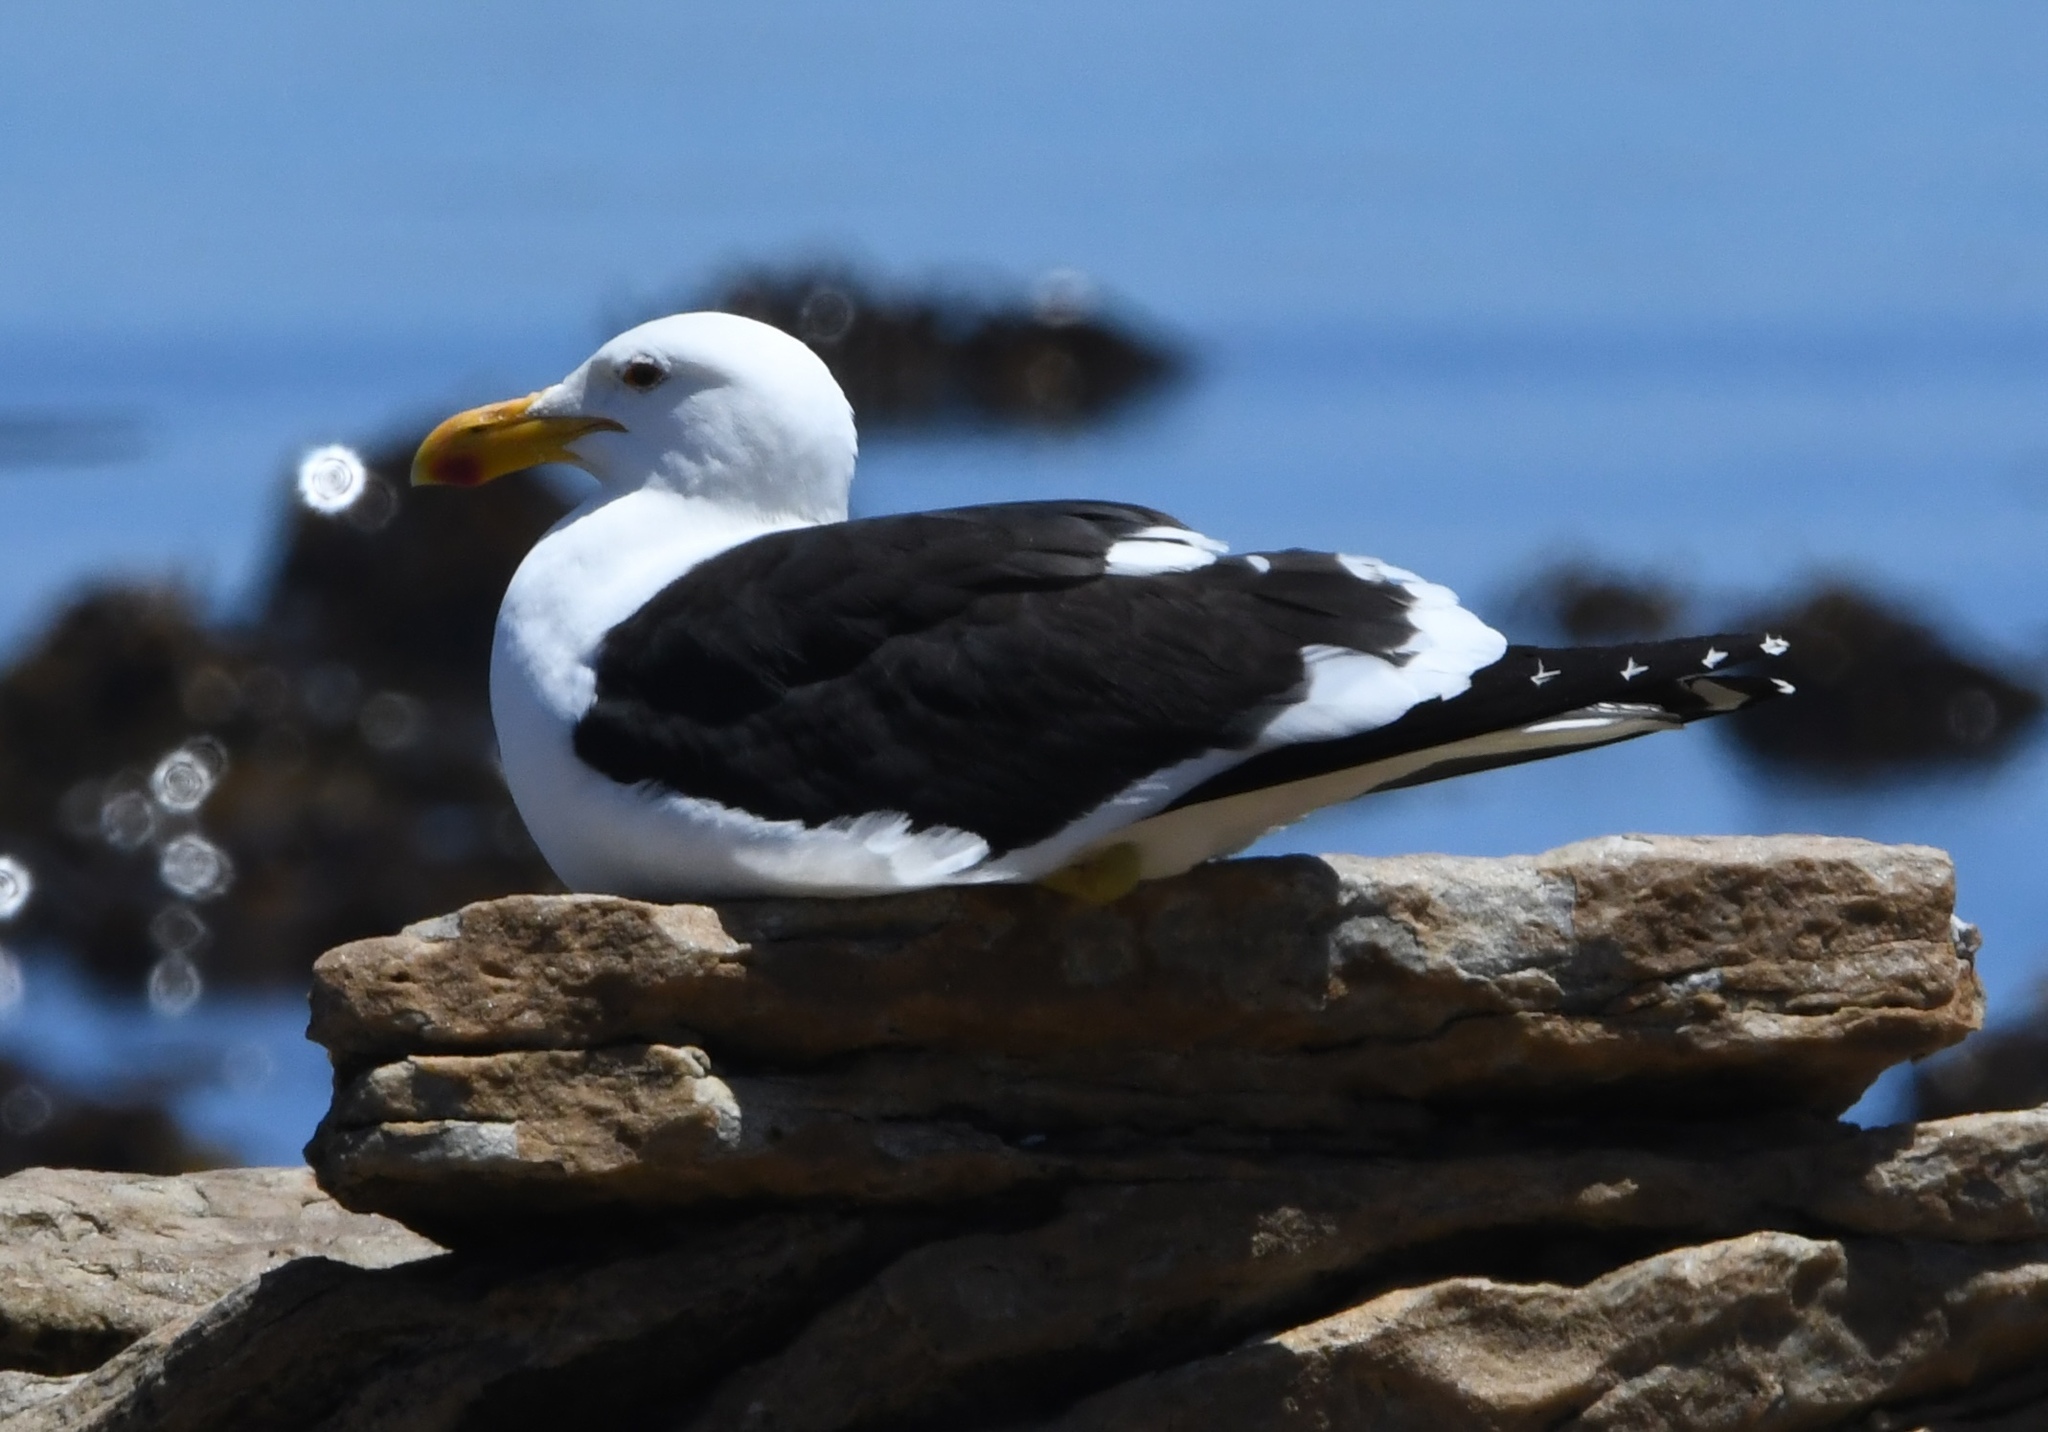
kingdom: Animalia
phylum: Chordata
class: Aves
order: Charadriiformes
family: Laridae
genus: Larus
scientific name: Larus dominicanus
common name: Kelp gull
